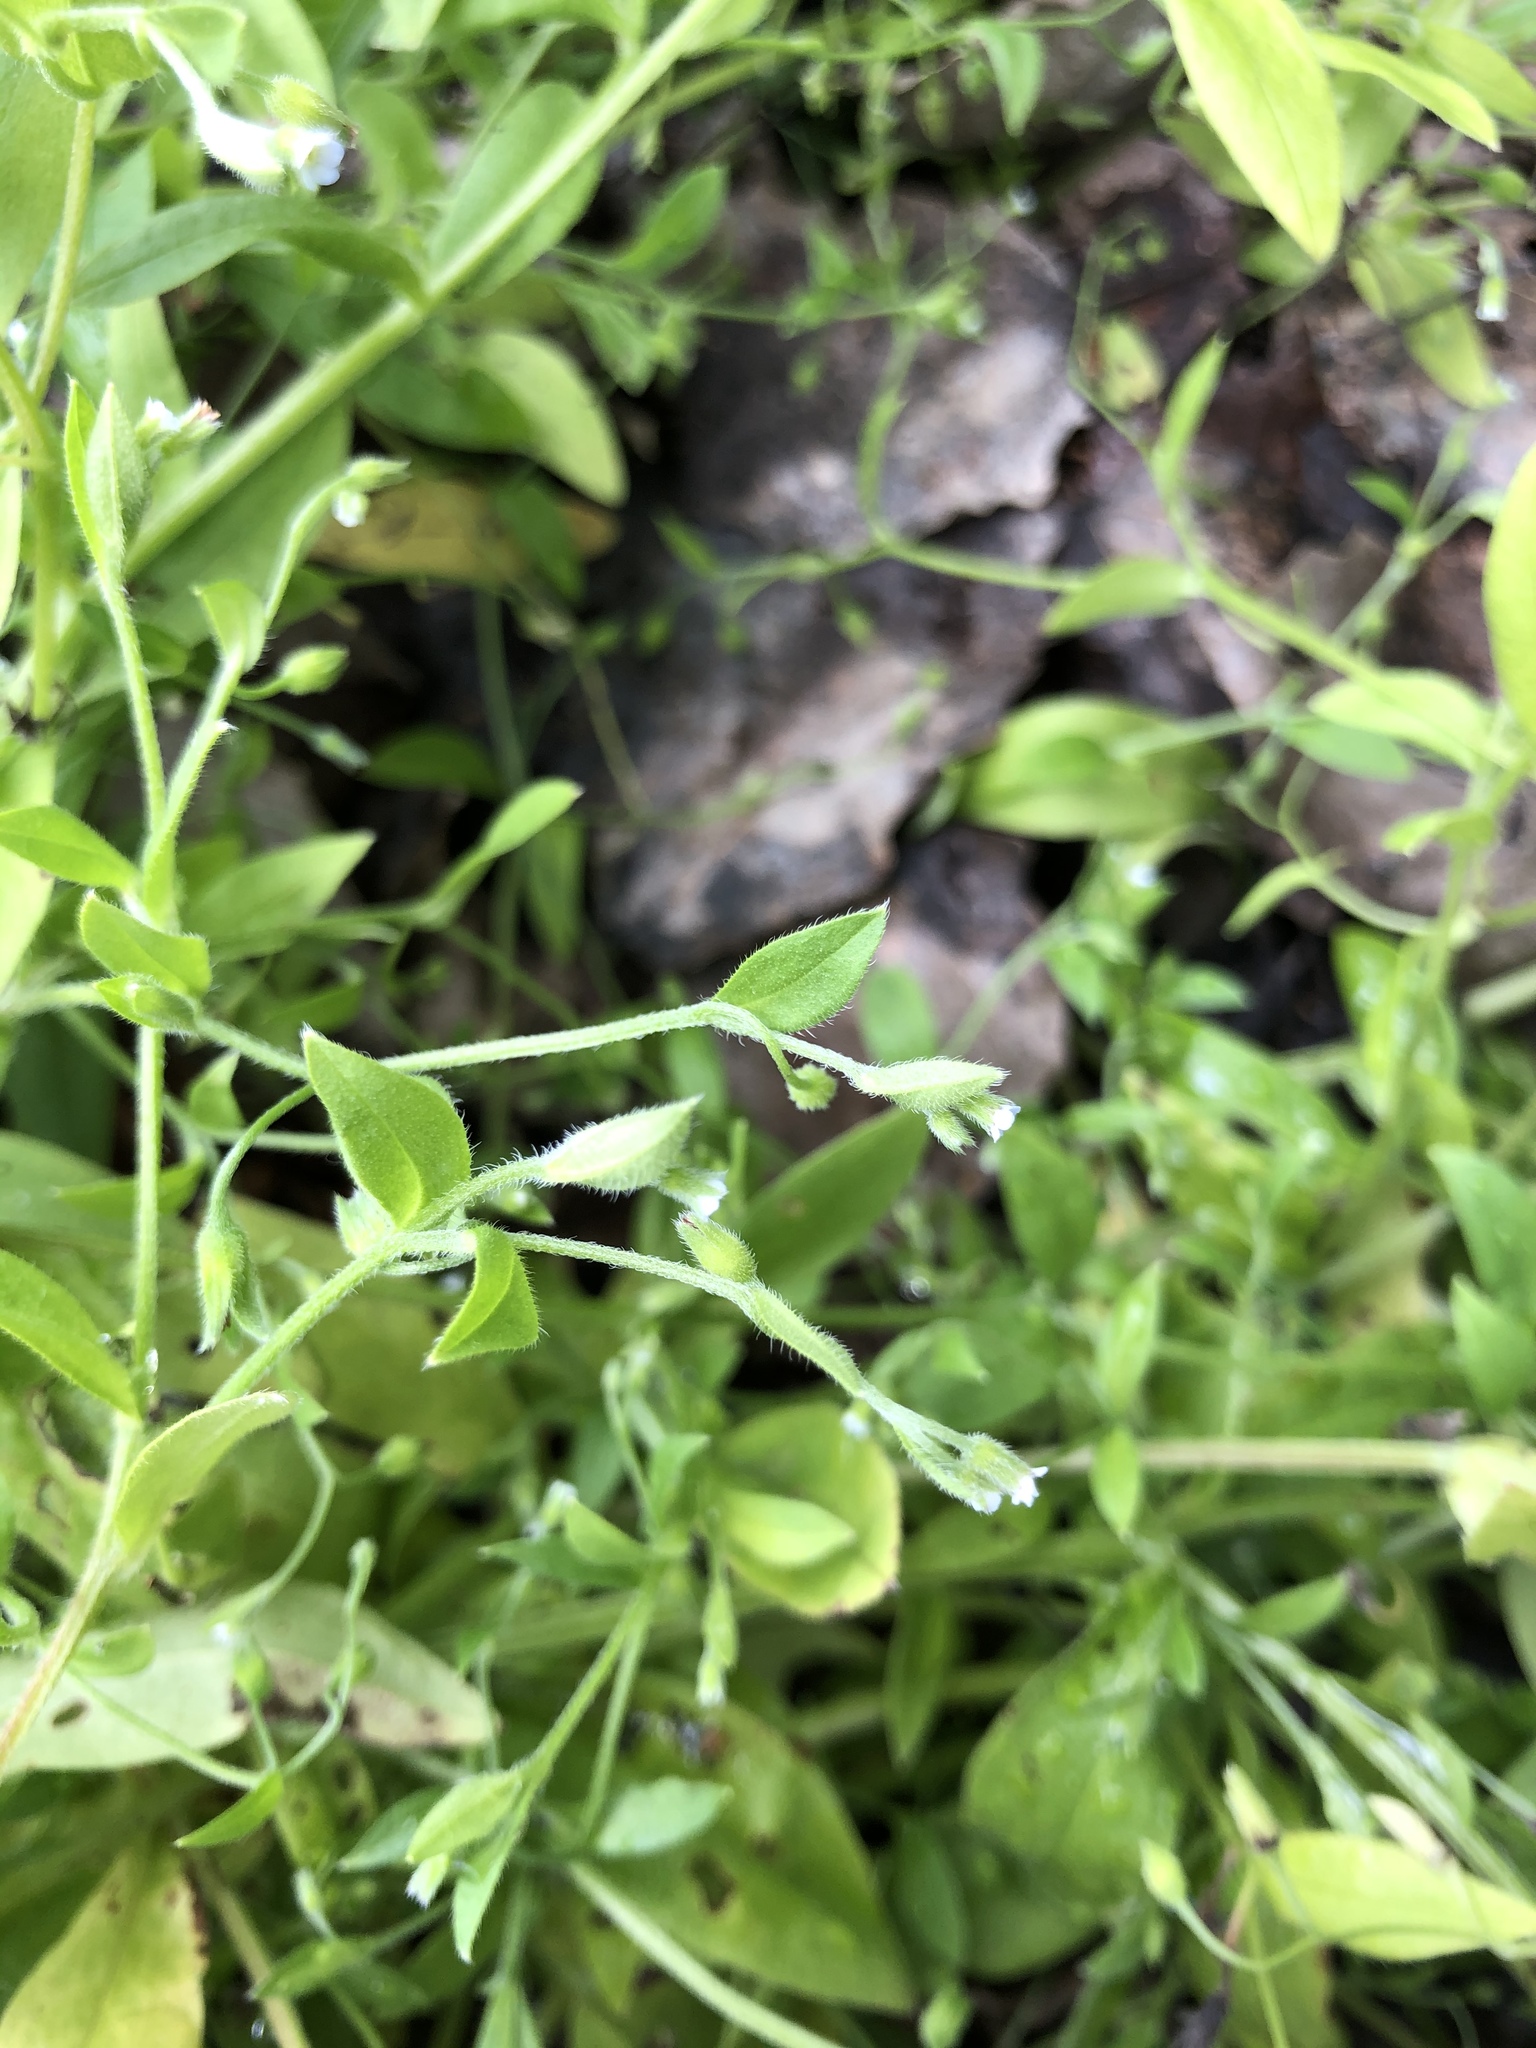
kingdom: Plantae
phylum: Tracheophyta
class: Magnoliopsida
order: Boraginales
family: Boraginaceae
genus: Myosotis
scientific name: Myosotis sparsiflora
